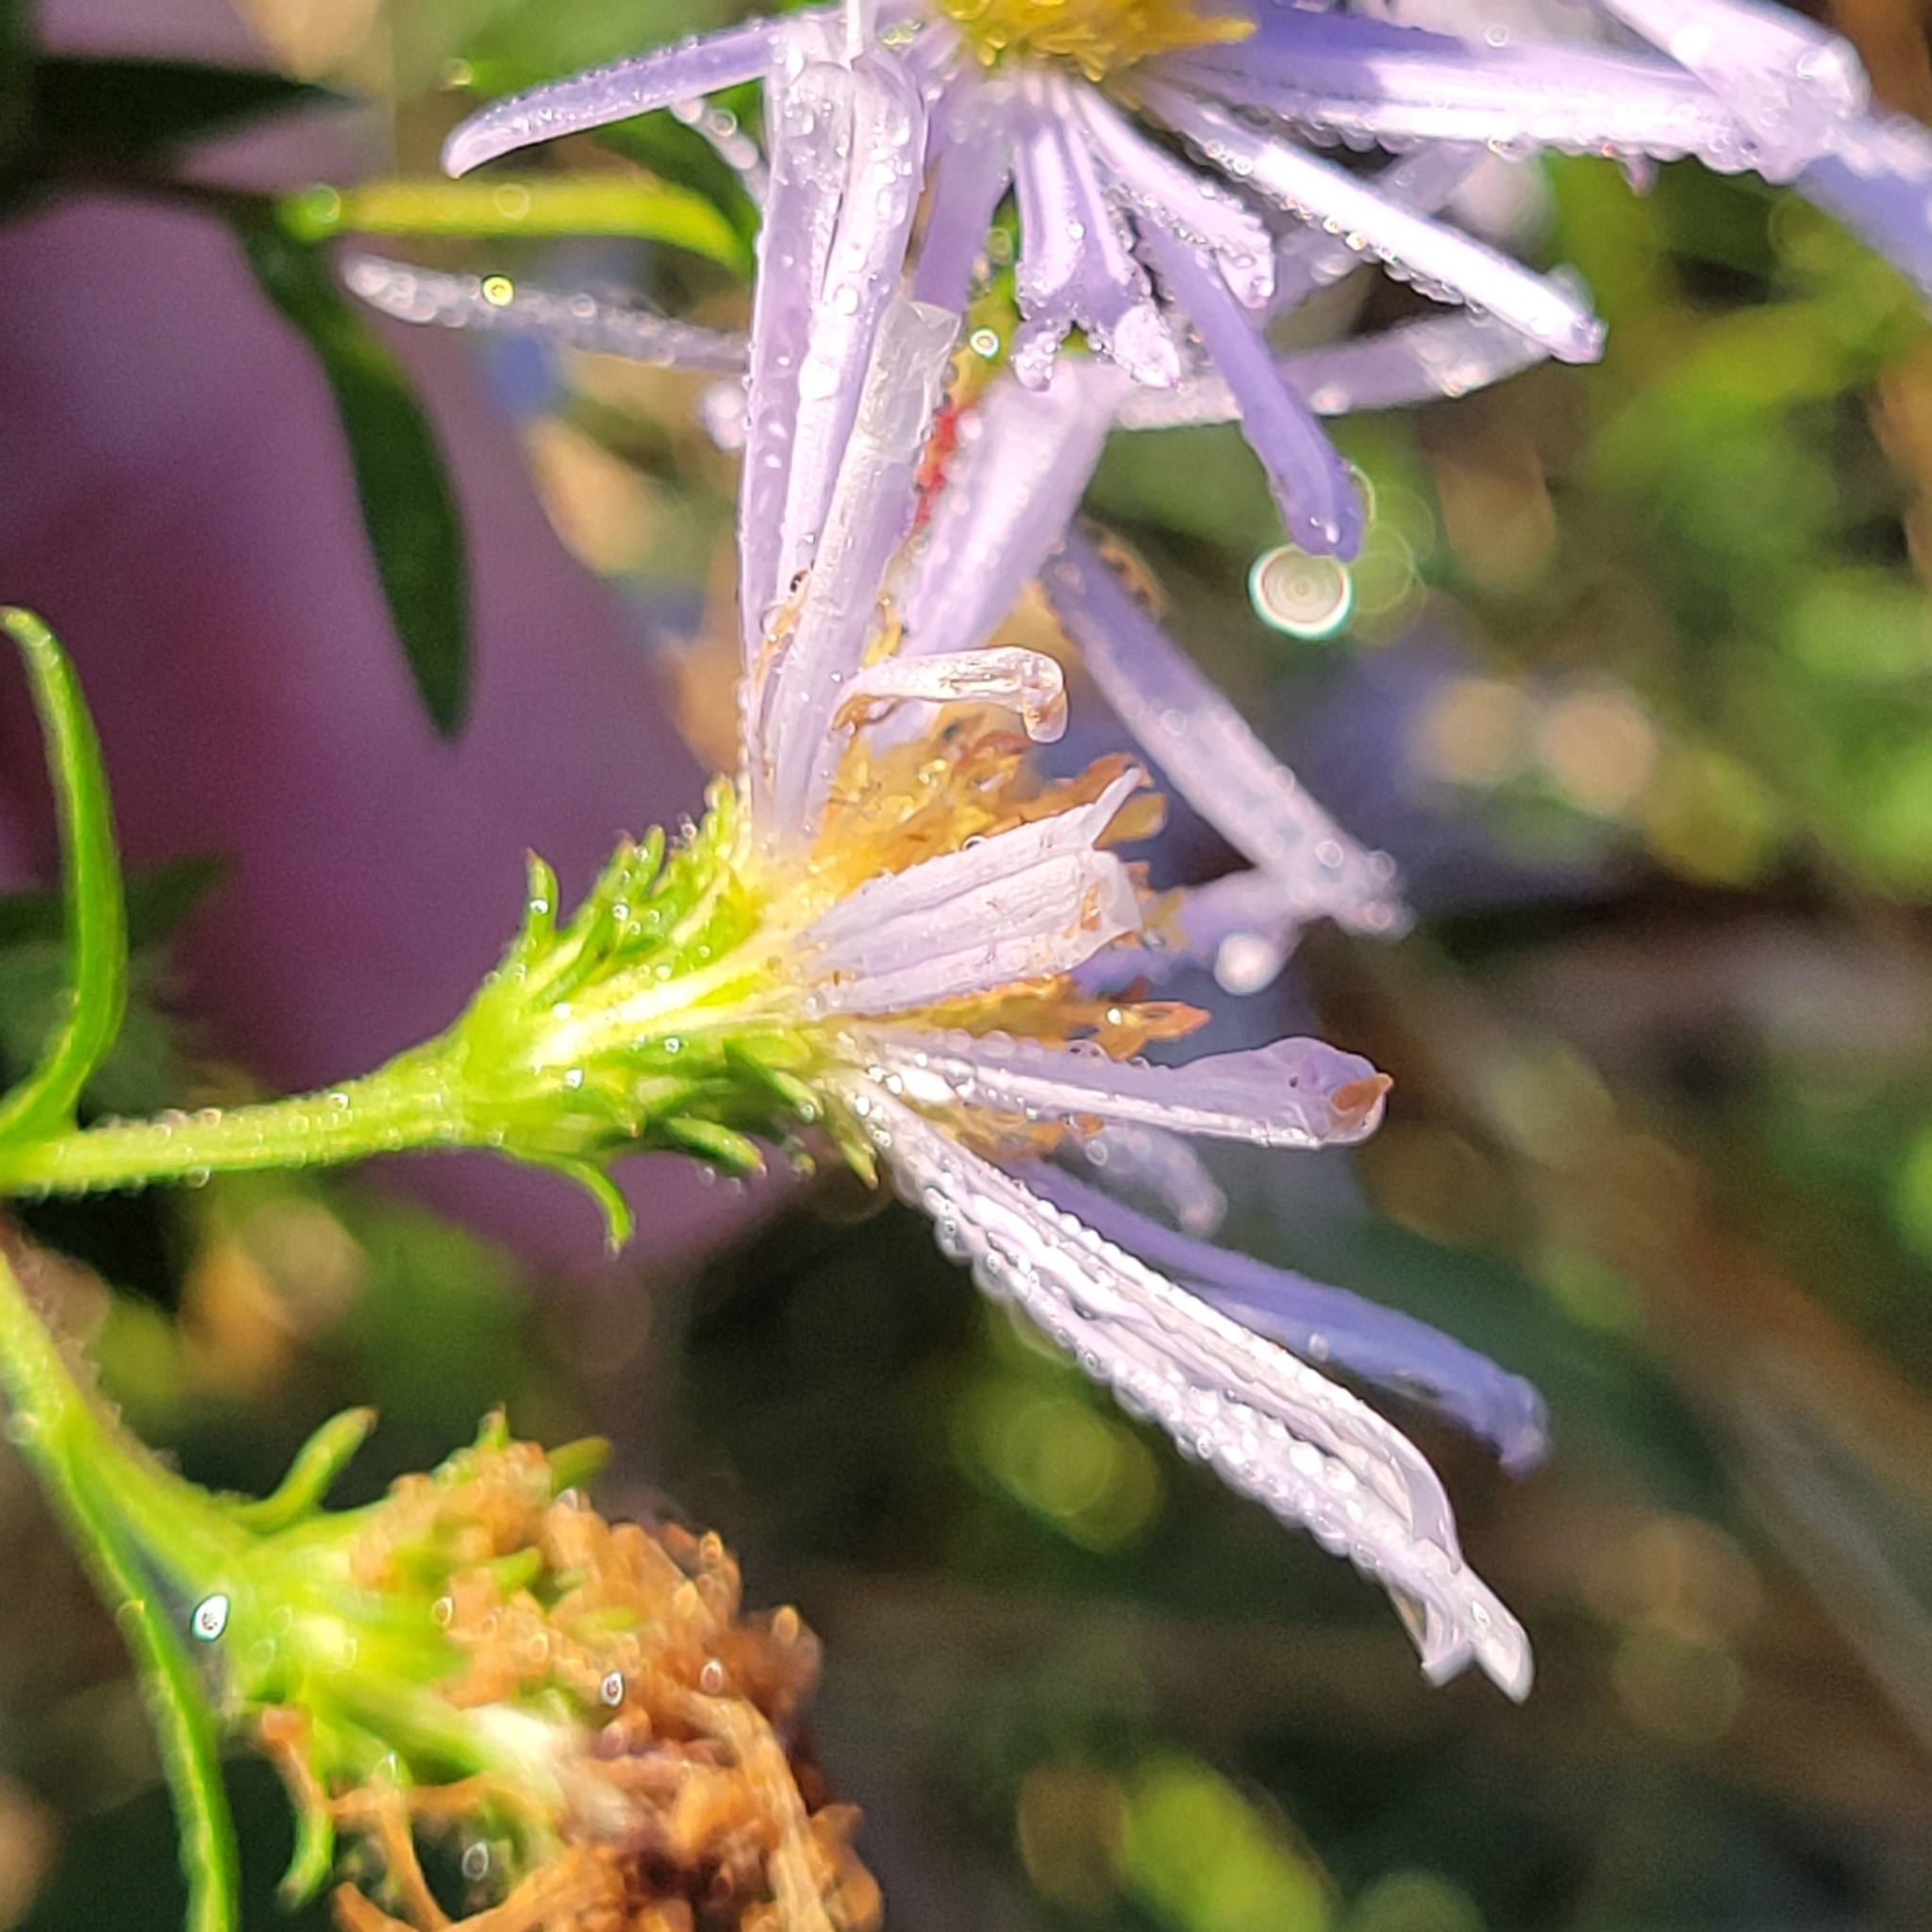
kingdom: Plantae
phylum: Tracheophyta
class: Magnoliopsida
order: Asterales
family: Asteraceae
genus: Eurybia
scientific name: Eurybia spectabilis
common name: Low showy aster
